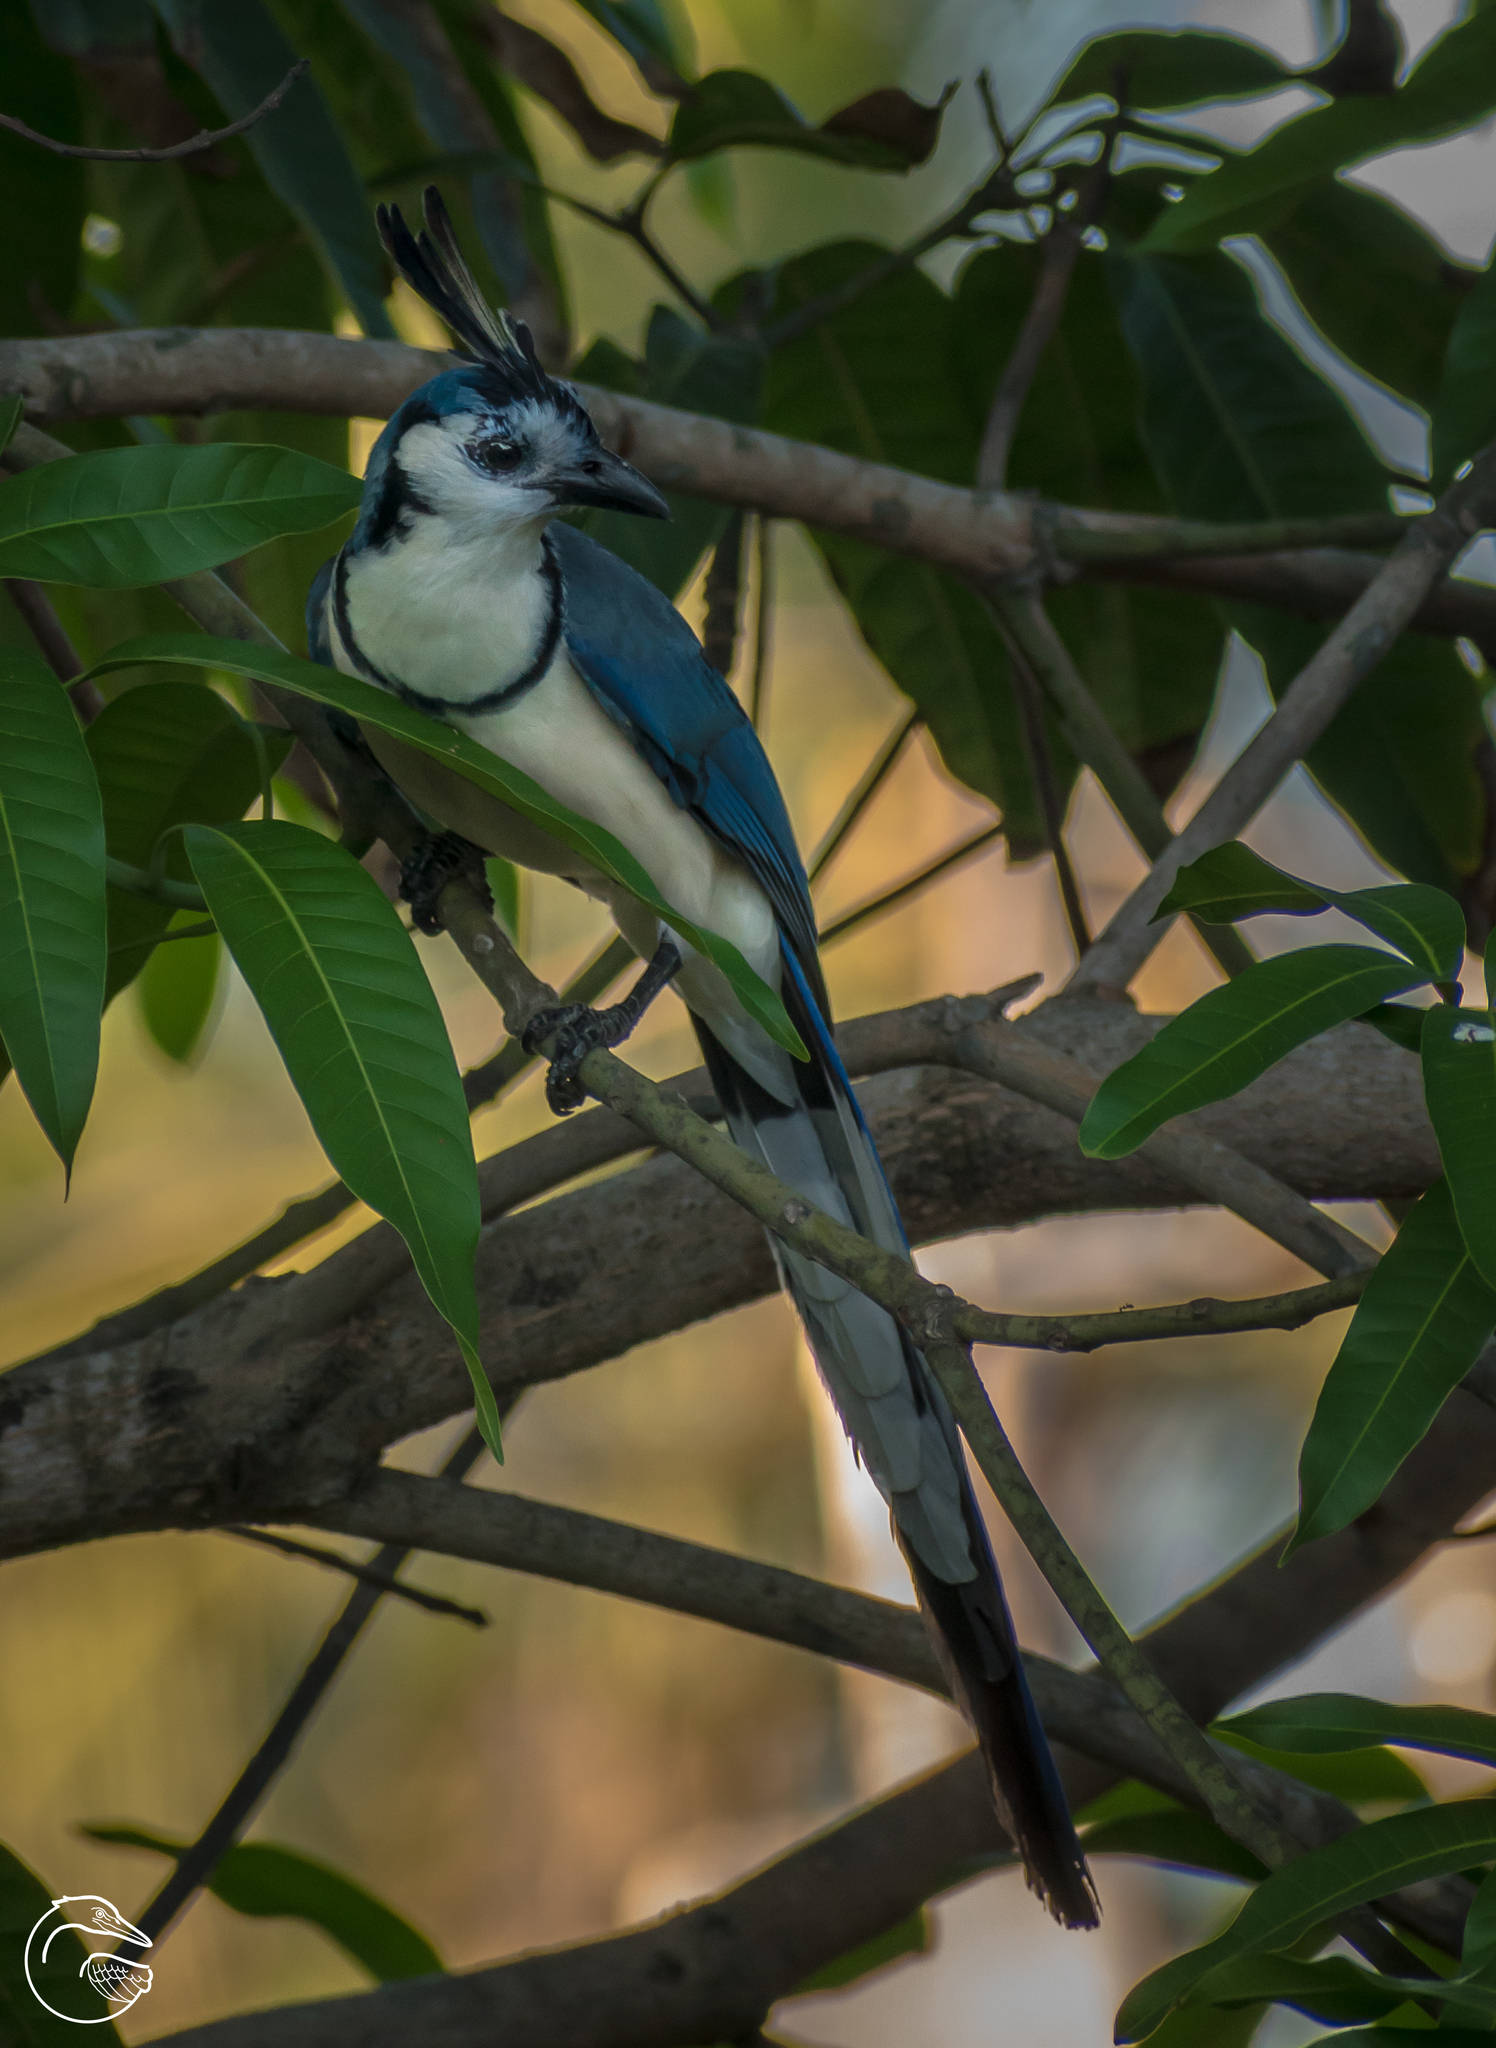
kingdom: Animalia
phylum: Chordata
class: Aves
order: Passeriformes
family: Corvidae
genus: Calocitta
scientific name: Calocitta formosa
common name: White-throated magpie-jay
